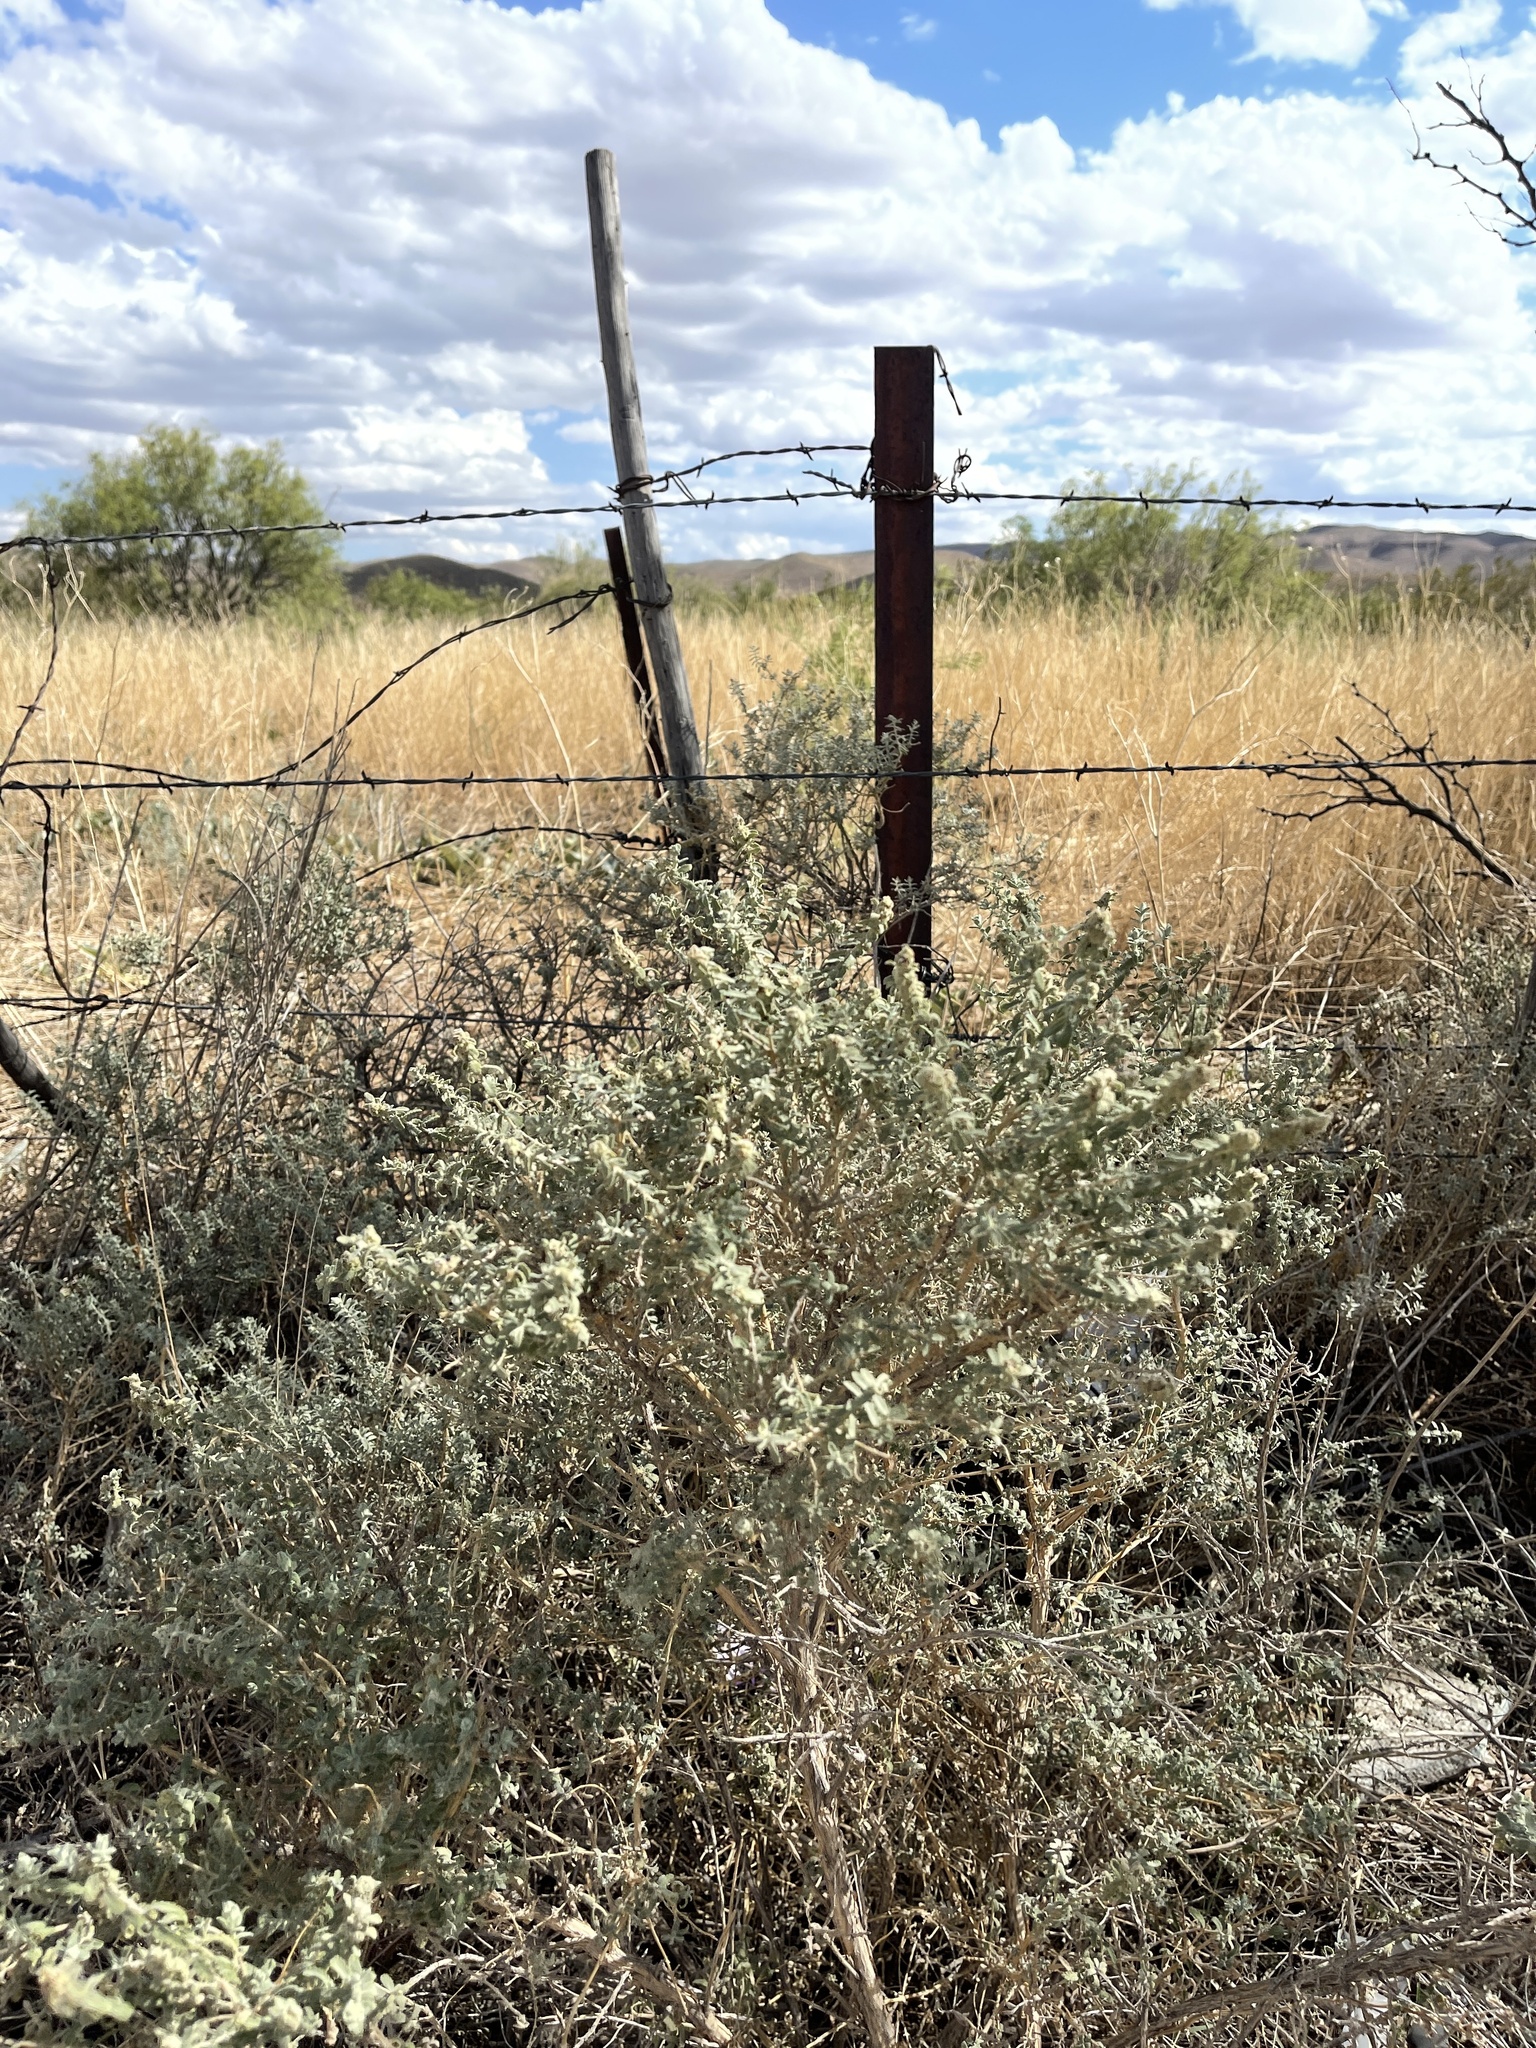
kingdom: Plantae
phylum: Tracheophyta
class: Magnoliopsida
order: Lamiales
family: Scrophulariaceae
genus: Buddleja
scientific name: Buddleja scordioides
